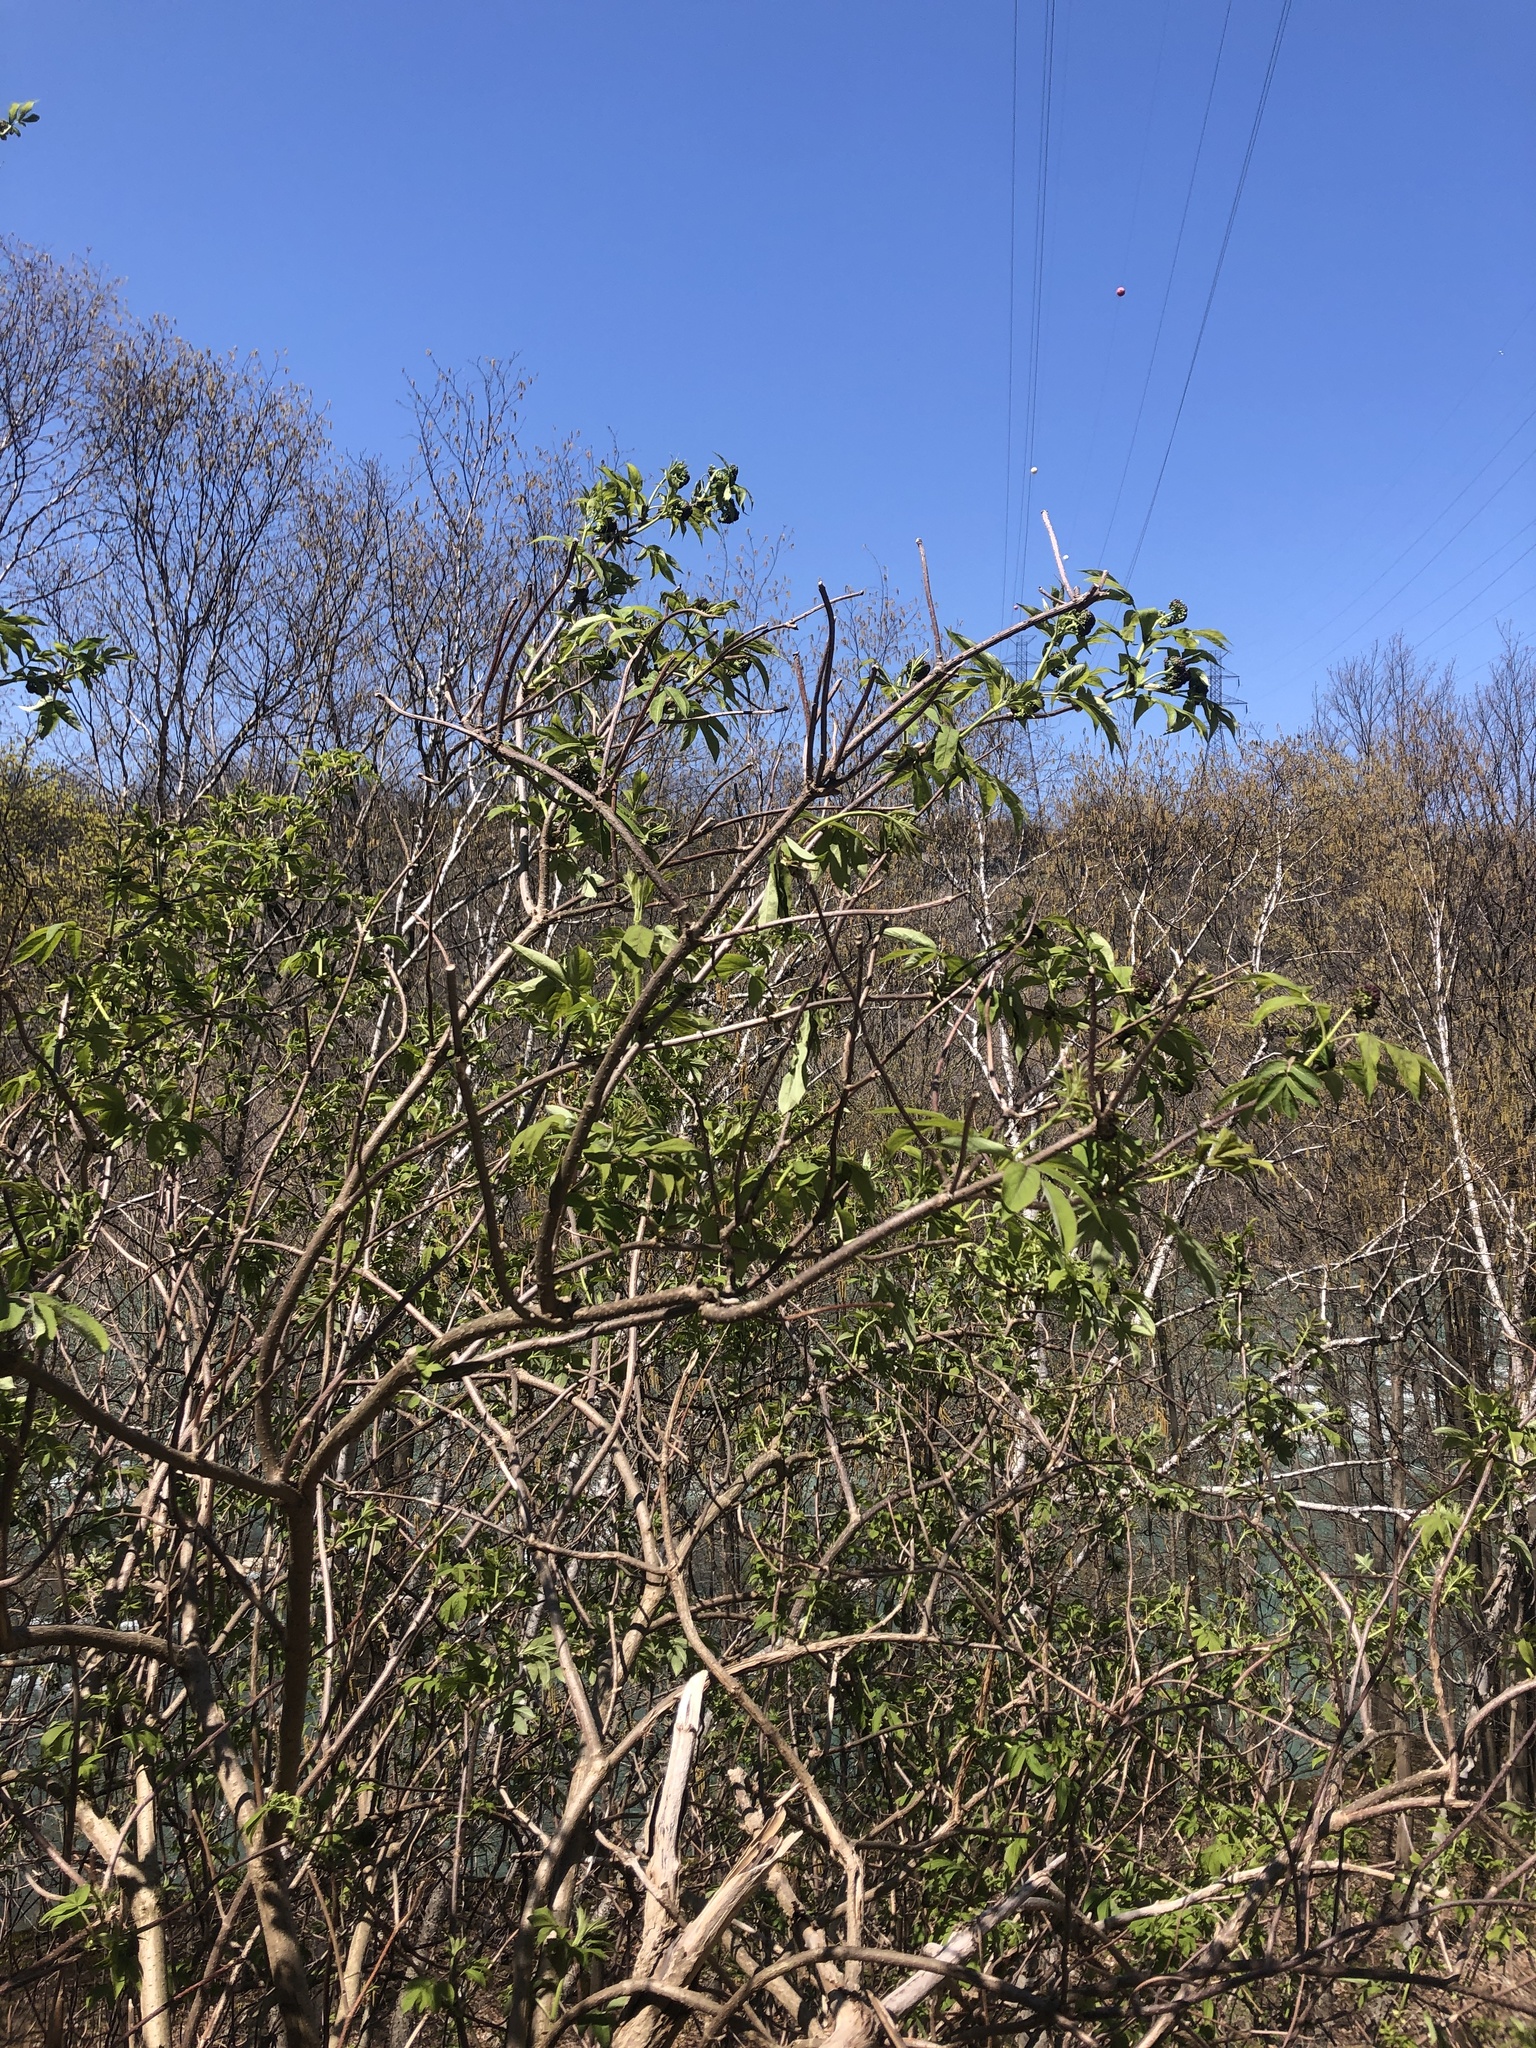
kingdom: Plantae
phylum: Tracheophyta
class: Magnoliopsida
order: Dipsacales
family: Viburnaceae
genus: Sambucus
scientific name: Sambucus racemosa
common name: Red-berried elder
